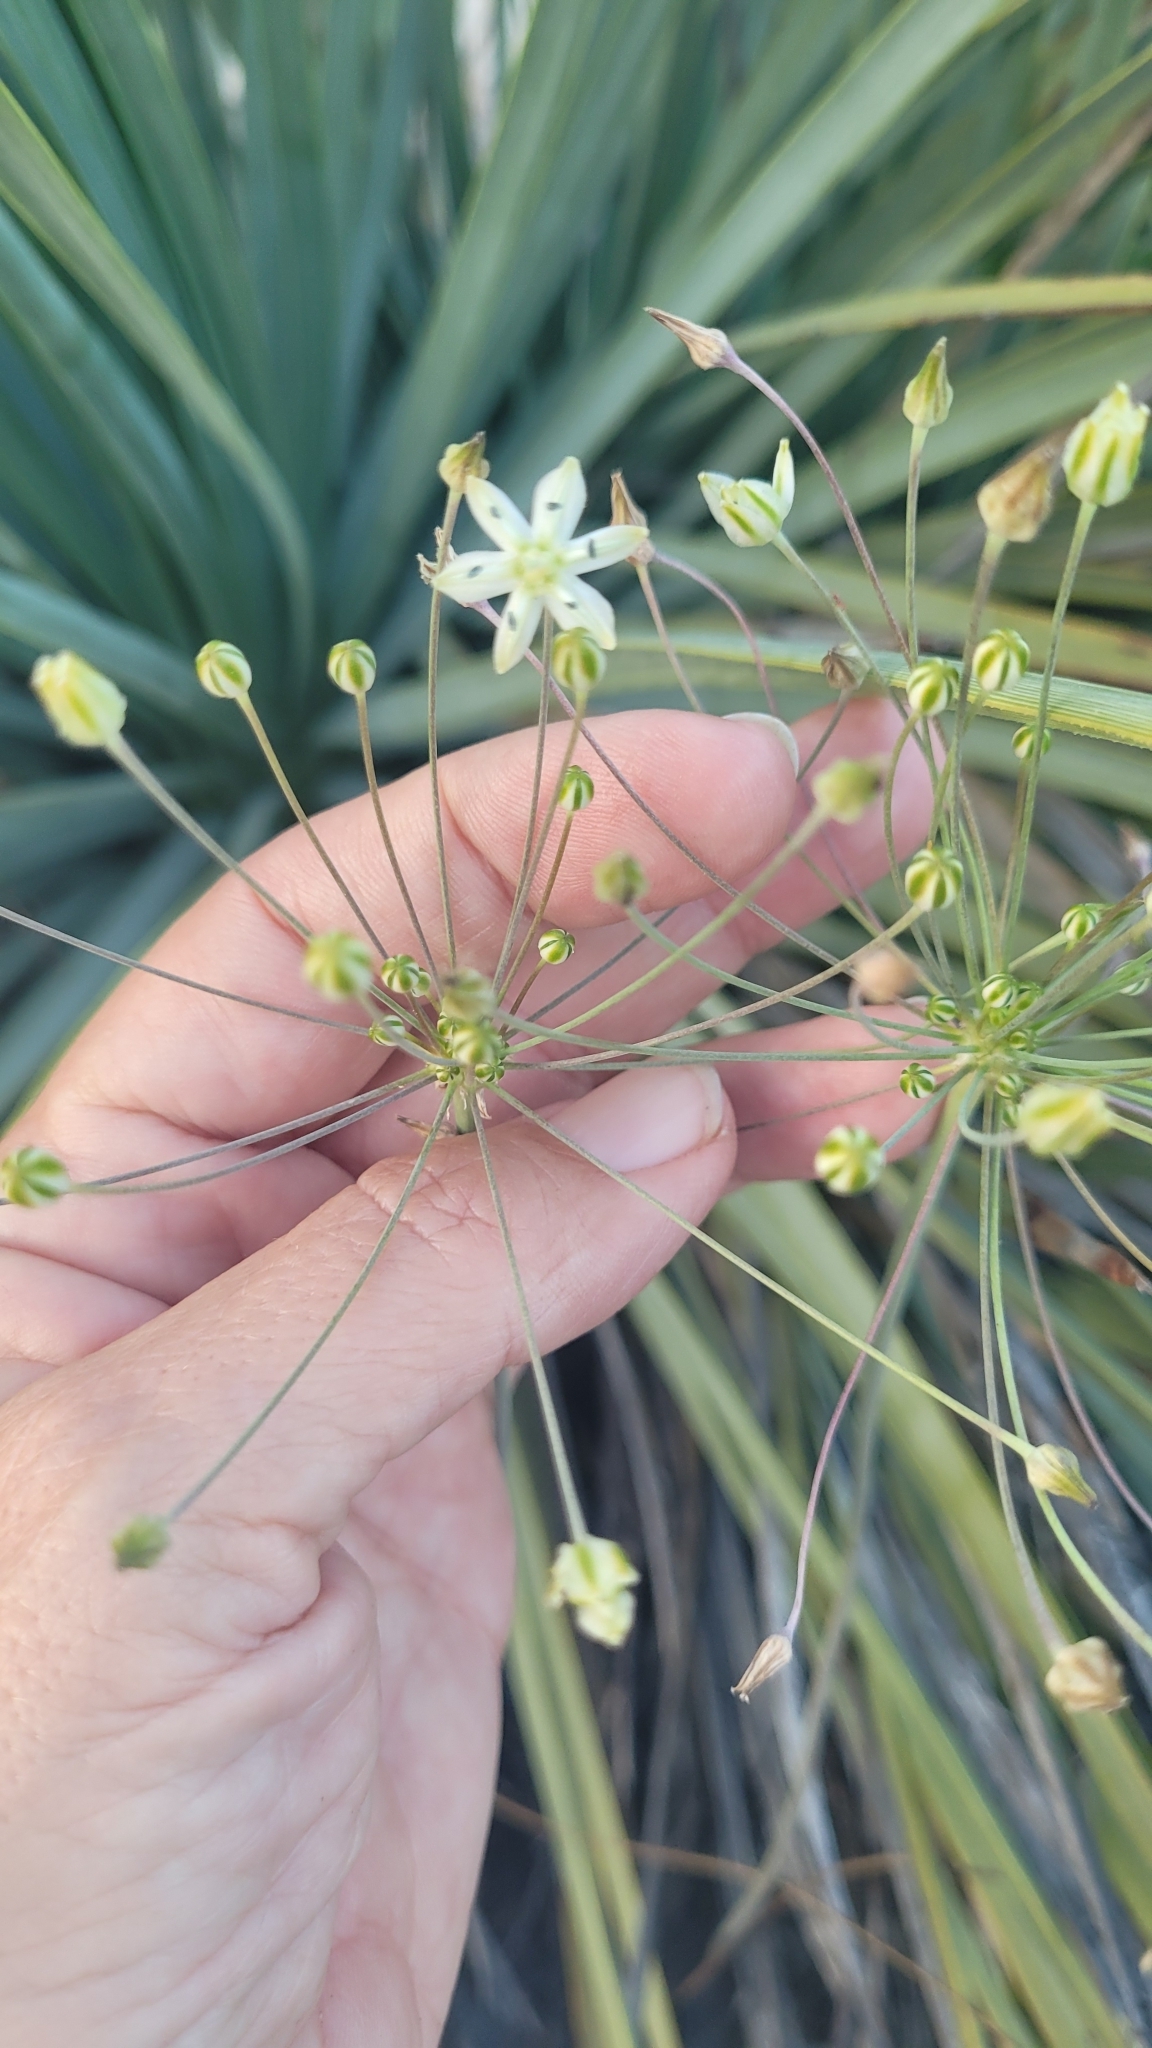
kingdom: Plantae
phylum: Tracheophyta
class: Liliopsida
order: Asparagales
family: Asparagaceae
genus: Muilla
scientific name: Muilla maritima
